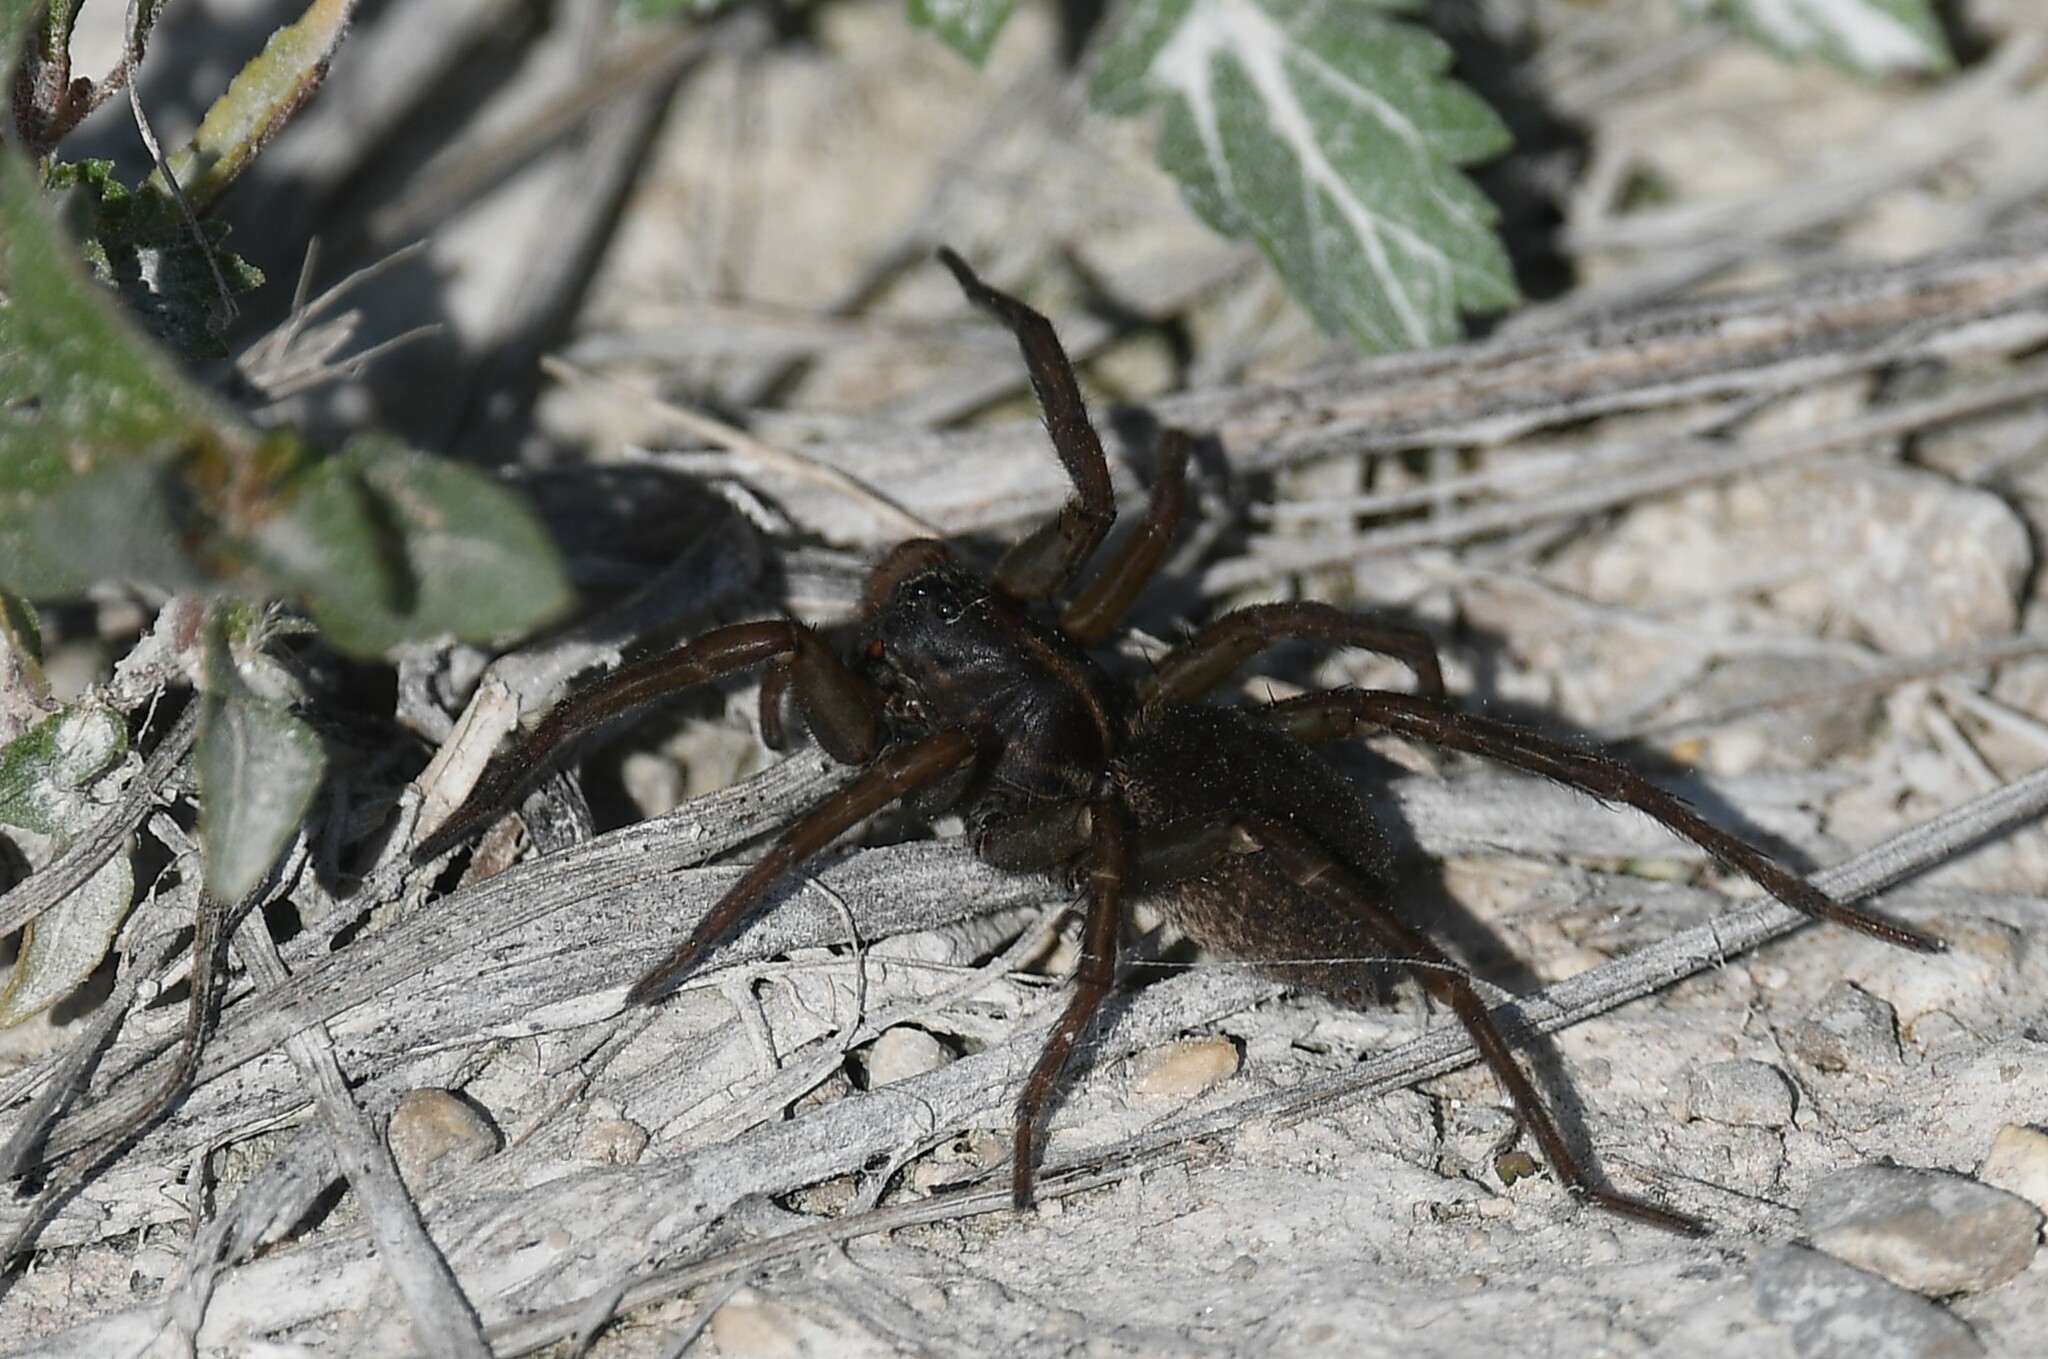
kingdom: Animalia
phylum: Arthropoda
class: Arachnida
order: Araneae
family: Lycosidae
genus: Tigrosa
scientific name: Tigrosa helluo
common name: Wetland giant wolf spider
